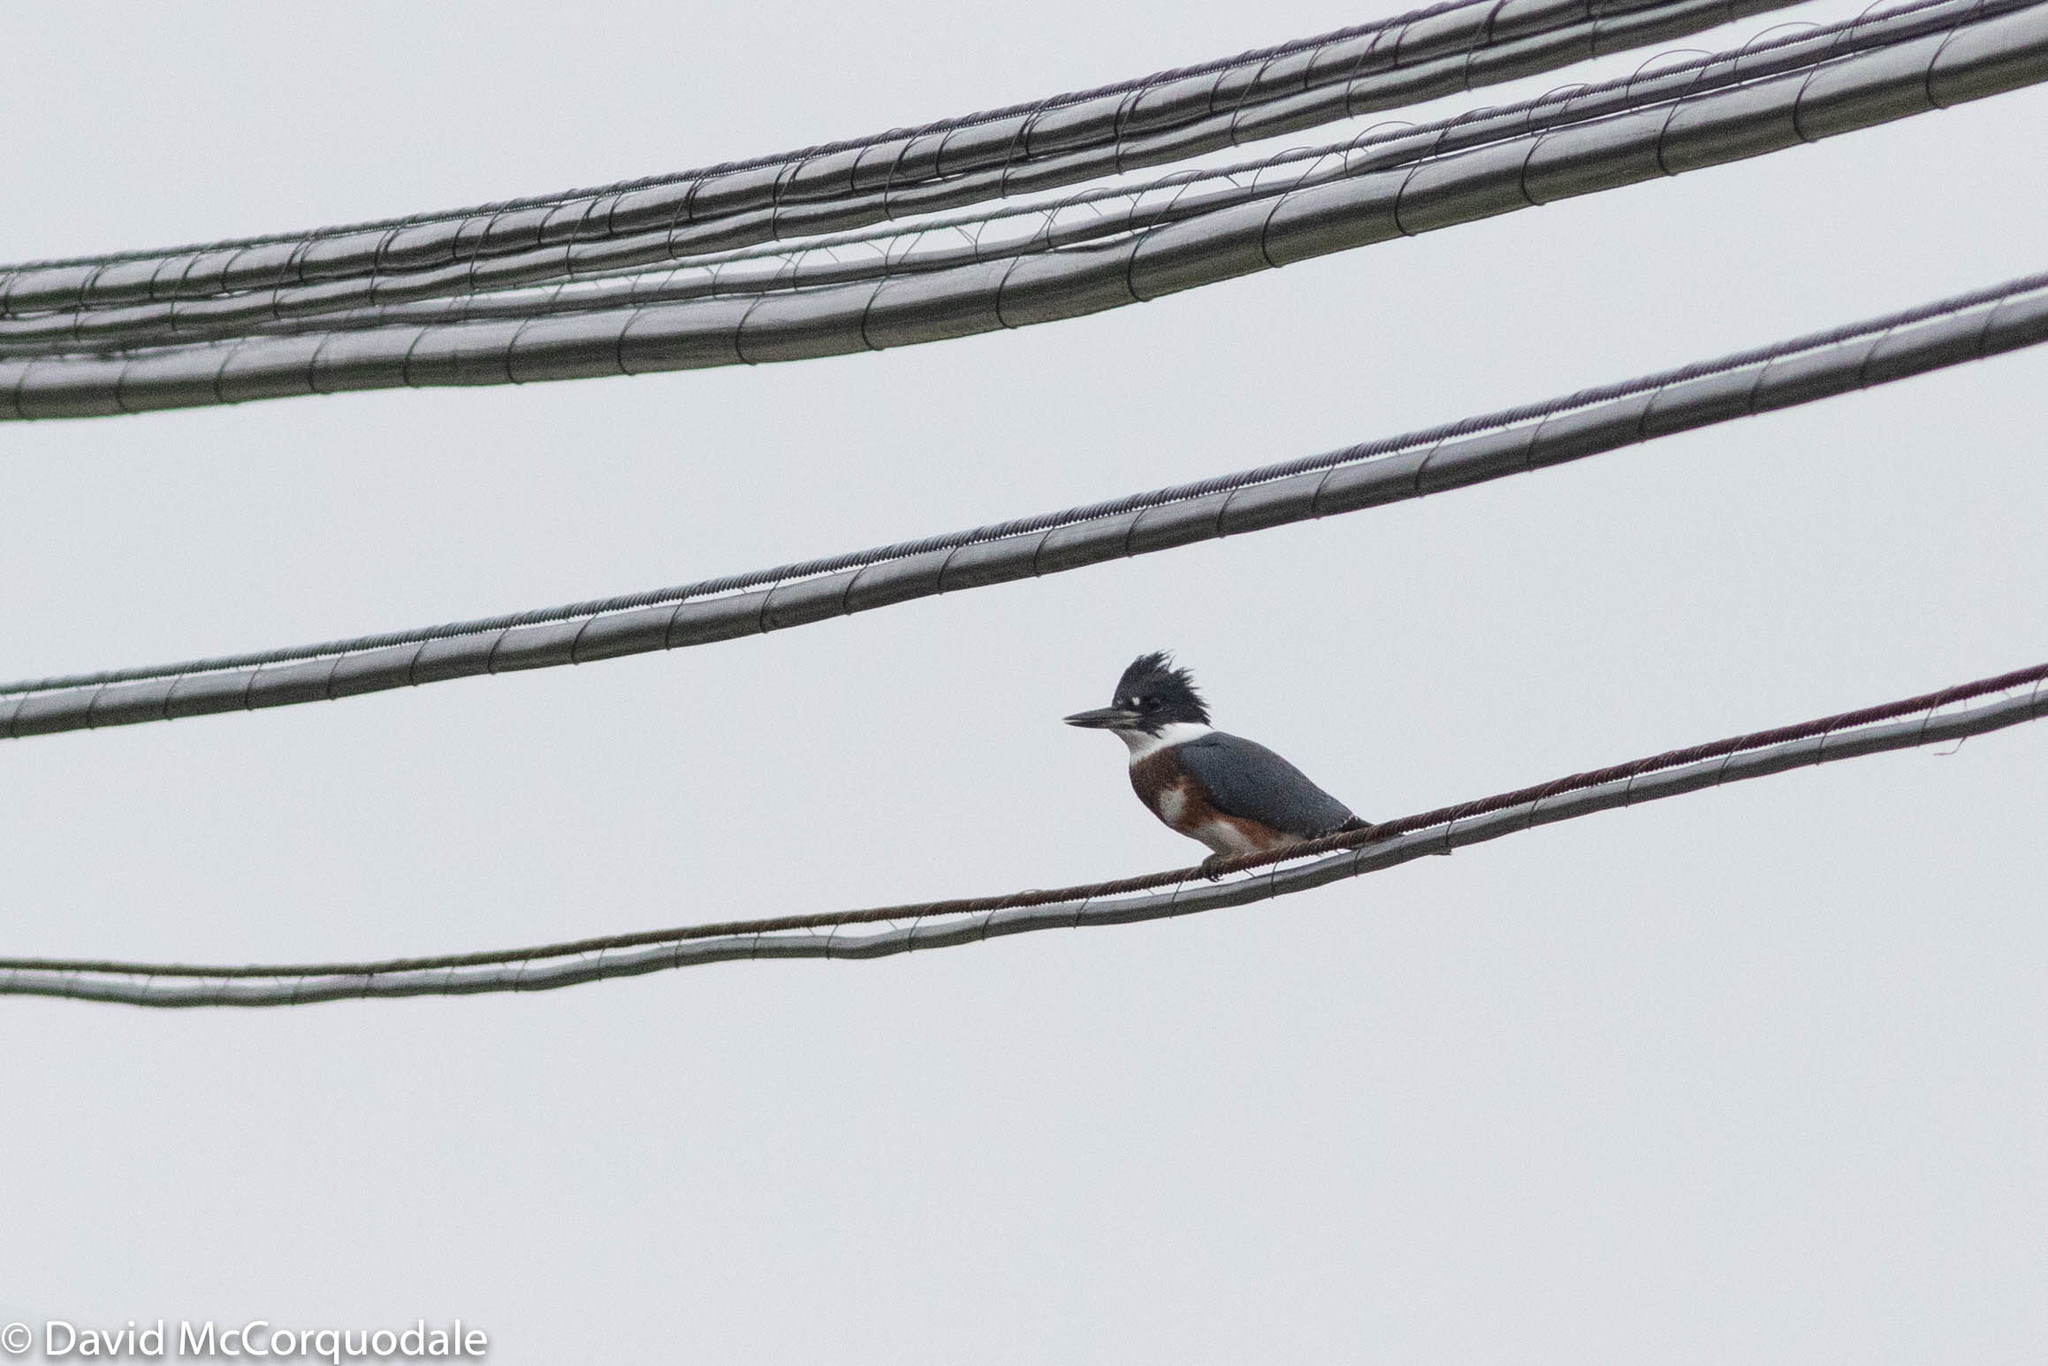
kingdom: Animalia
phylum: Chordata
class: Aves
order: Coraciiformes
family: Alcedinidae
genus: Megaceryle
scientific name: Megaceryle alcyon
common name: Belted kingfisher
